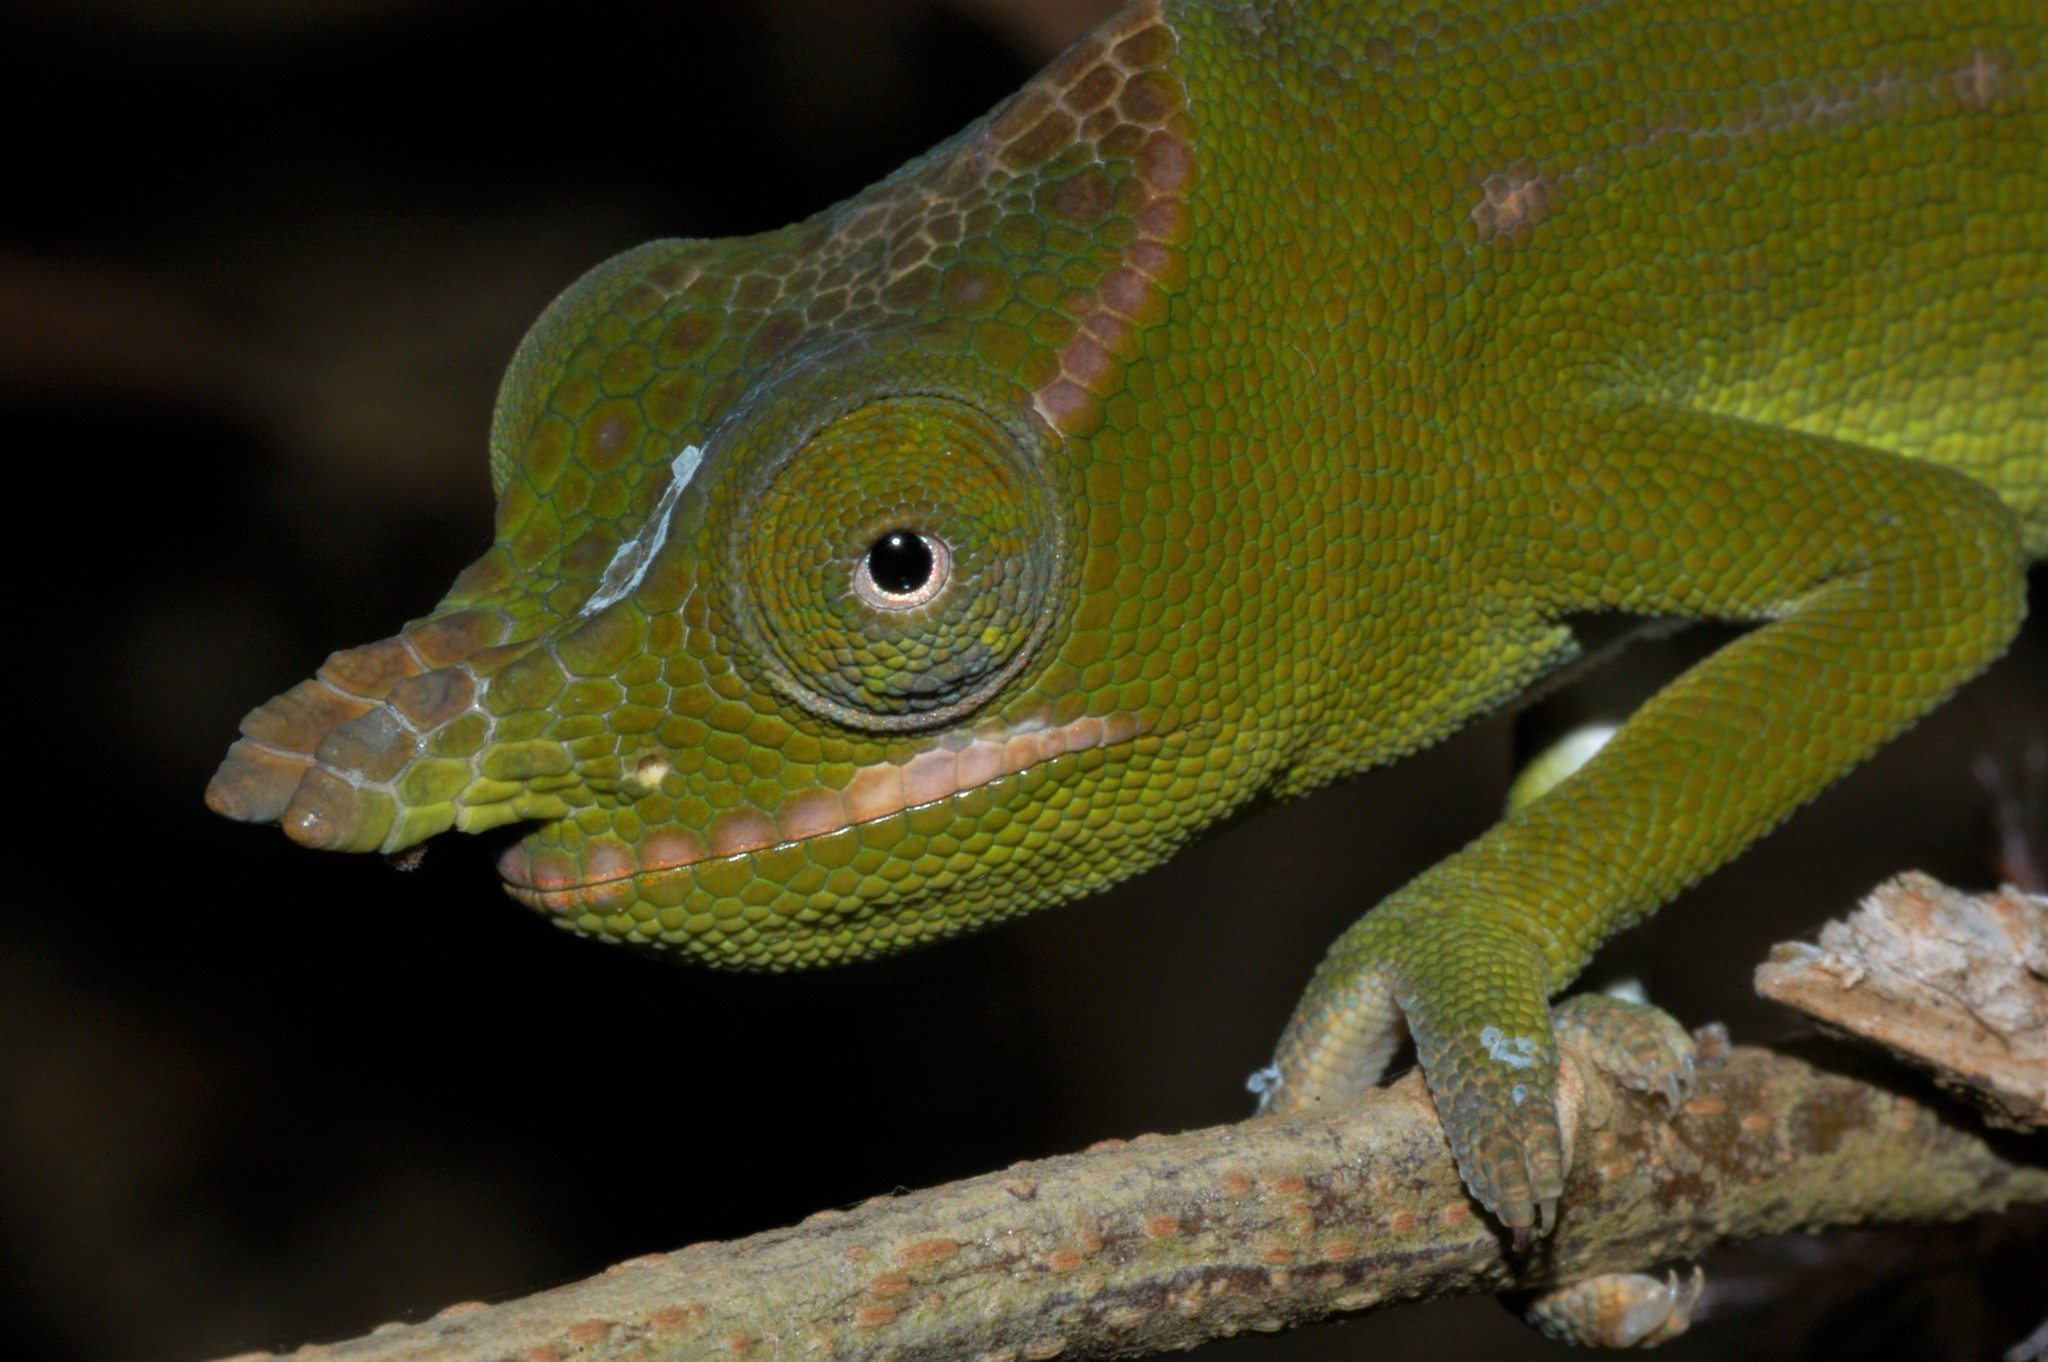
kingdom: Animalia
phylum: Chordata
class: Squamata
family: Chamaeleonidae
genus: Furcifer
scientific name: Furcifer petteri
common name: Petter's chameleon
